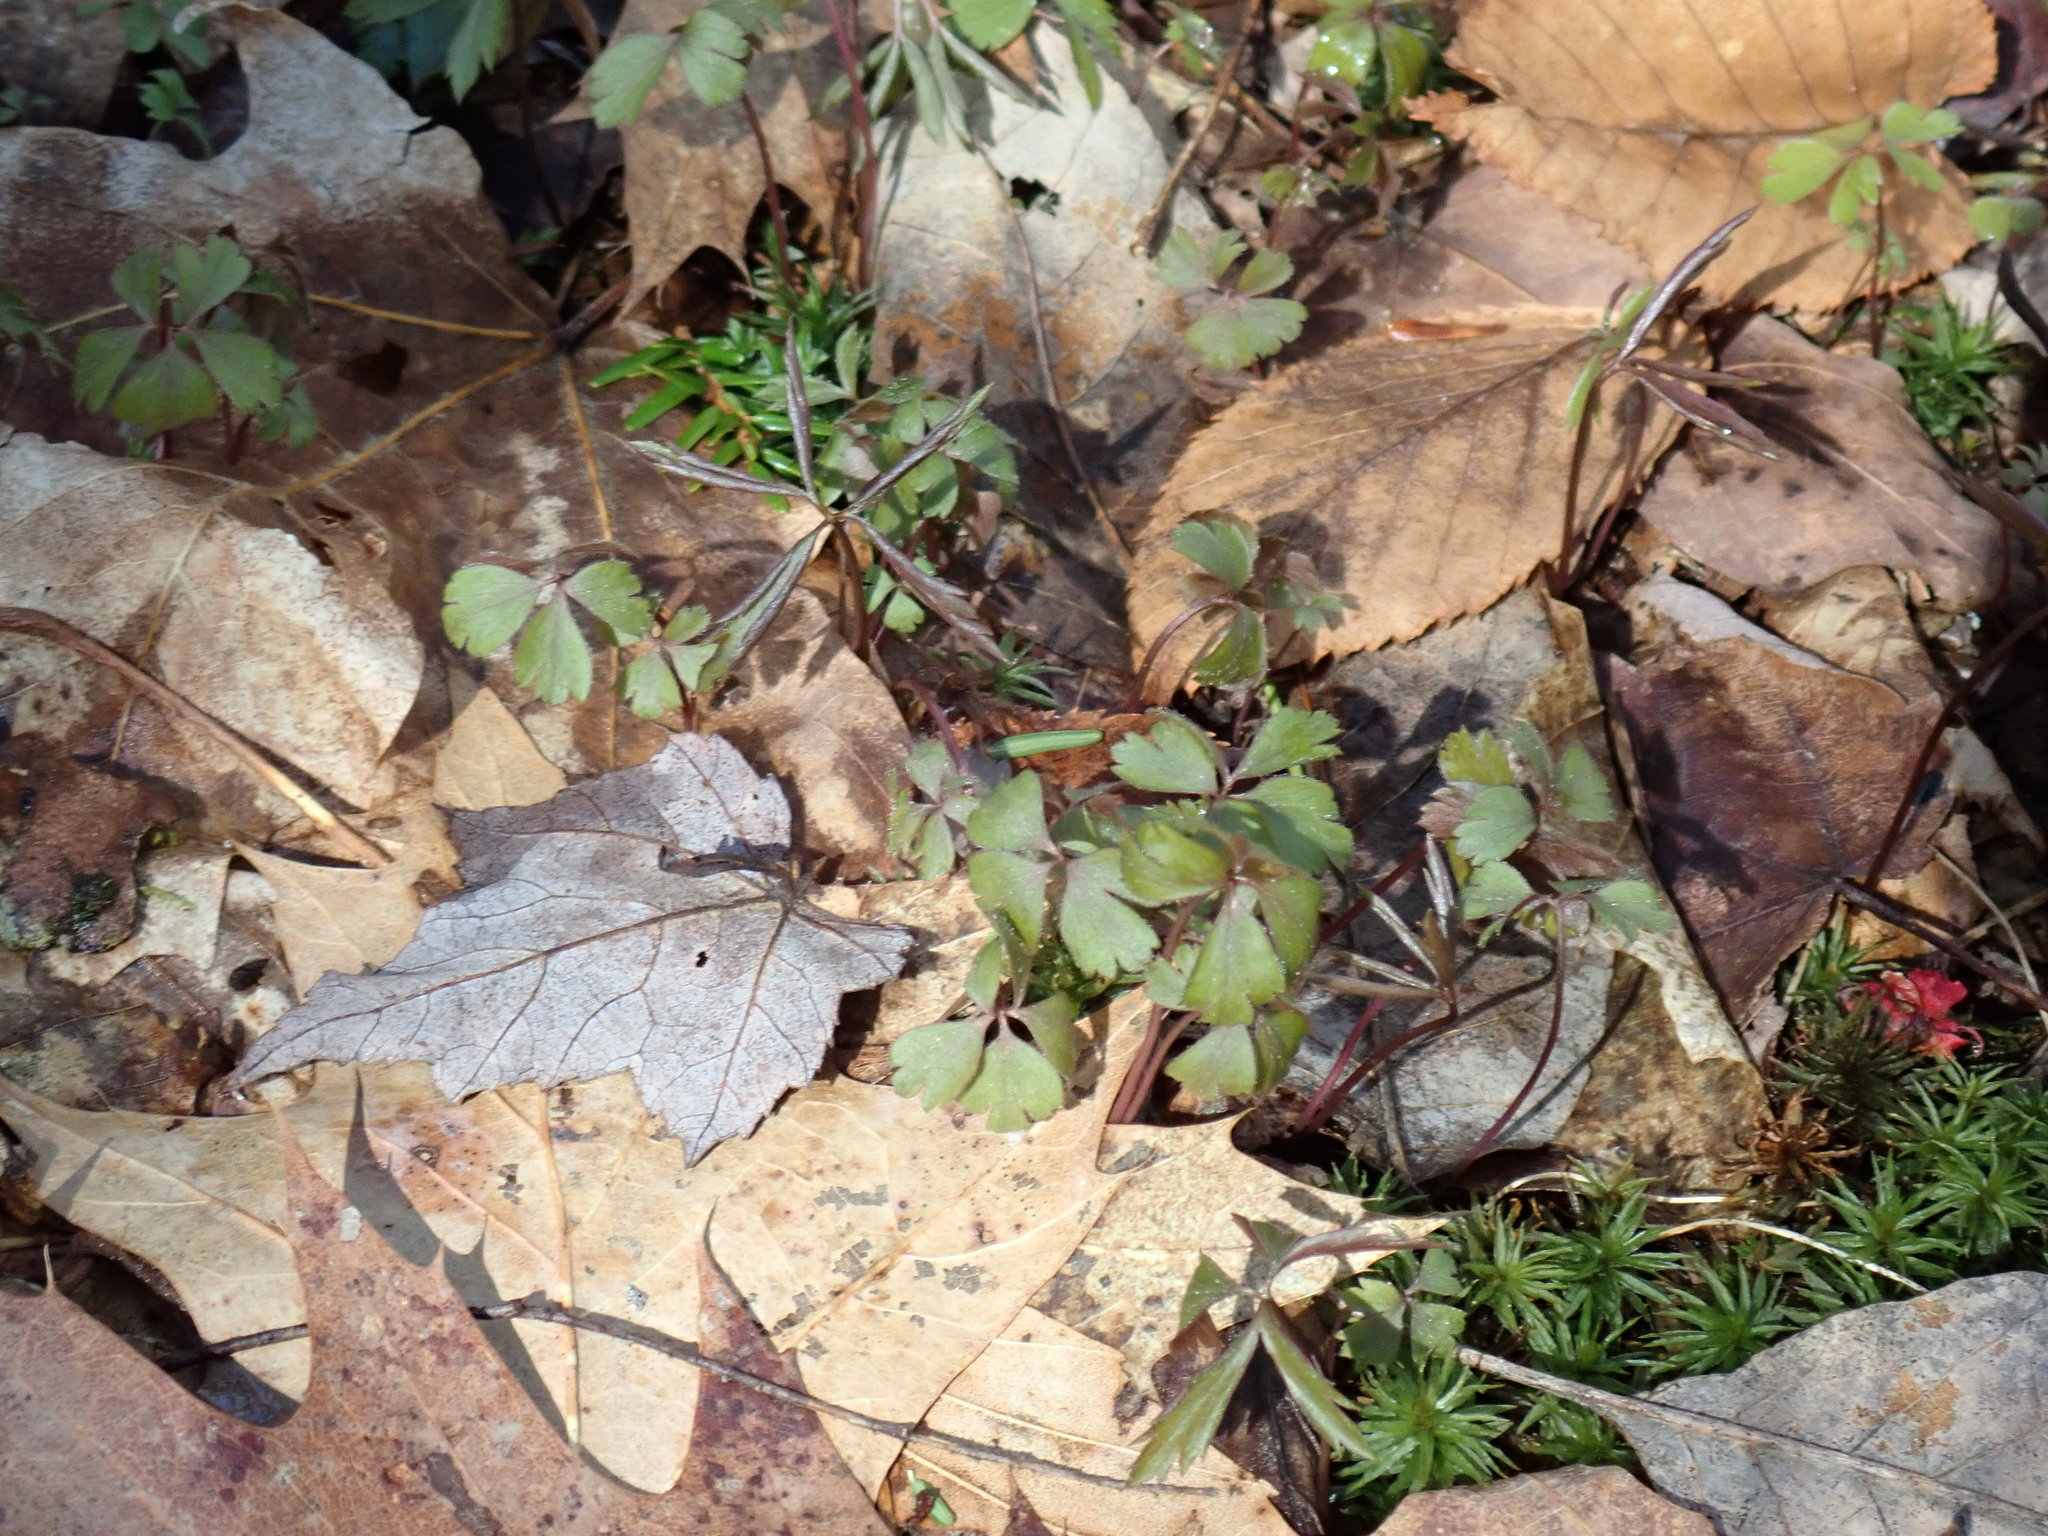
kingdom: Plantae
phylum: Tracheophyta
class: Magnoliopsida
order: Ranunculales
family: Ranunculaceae
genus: Anemone
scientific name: Anemone quinquefolia
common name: Wood anemone
